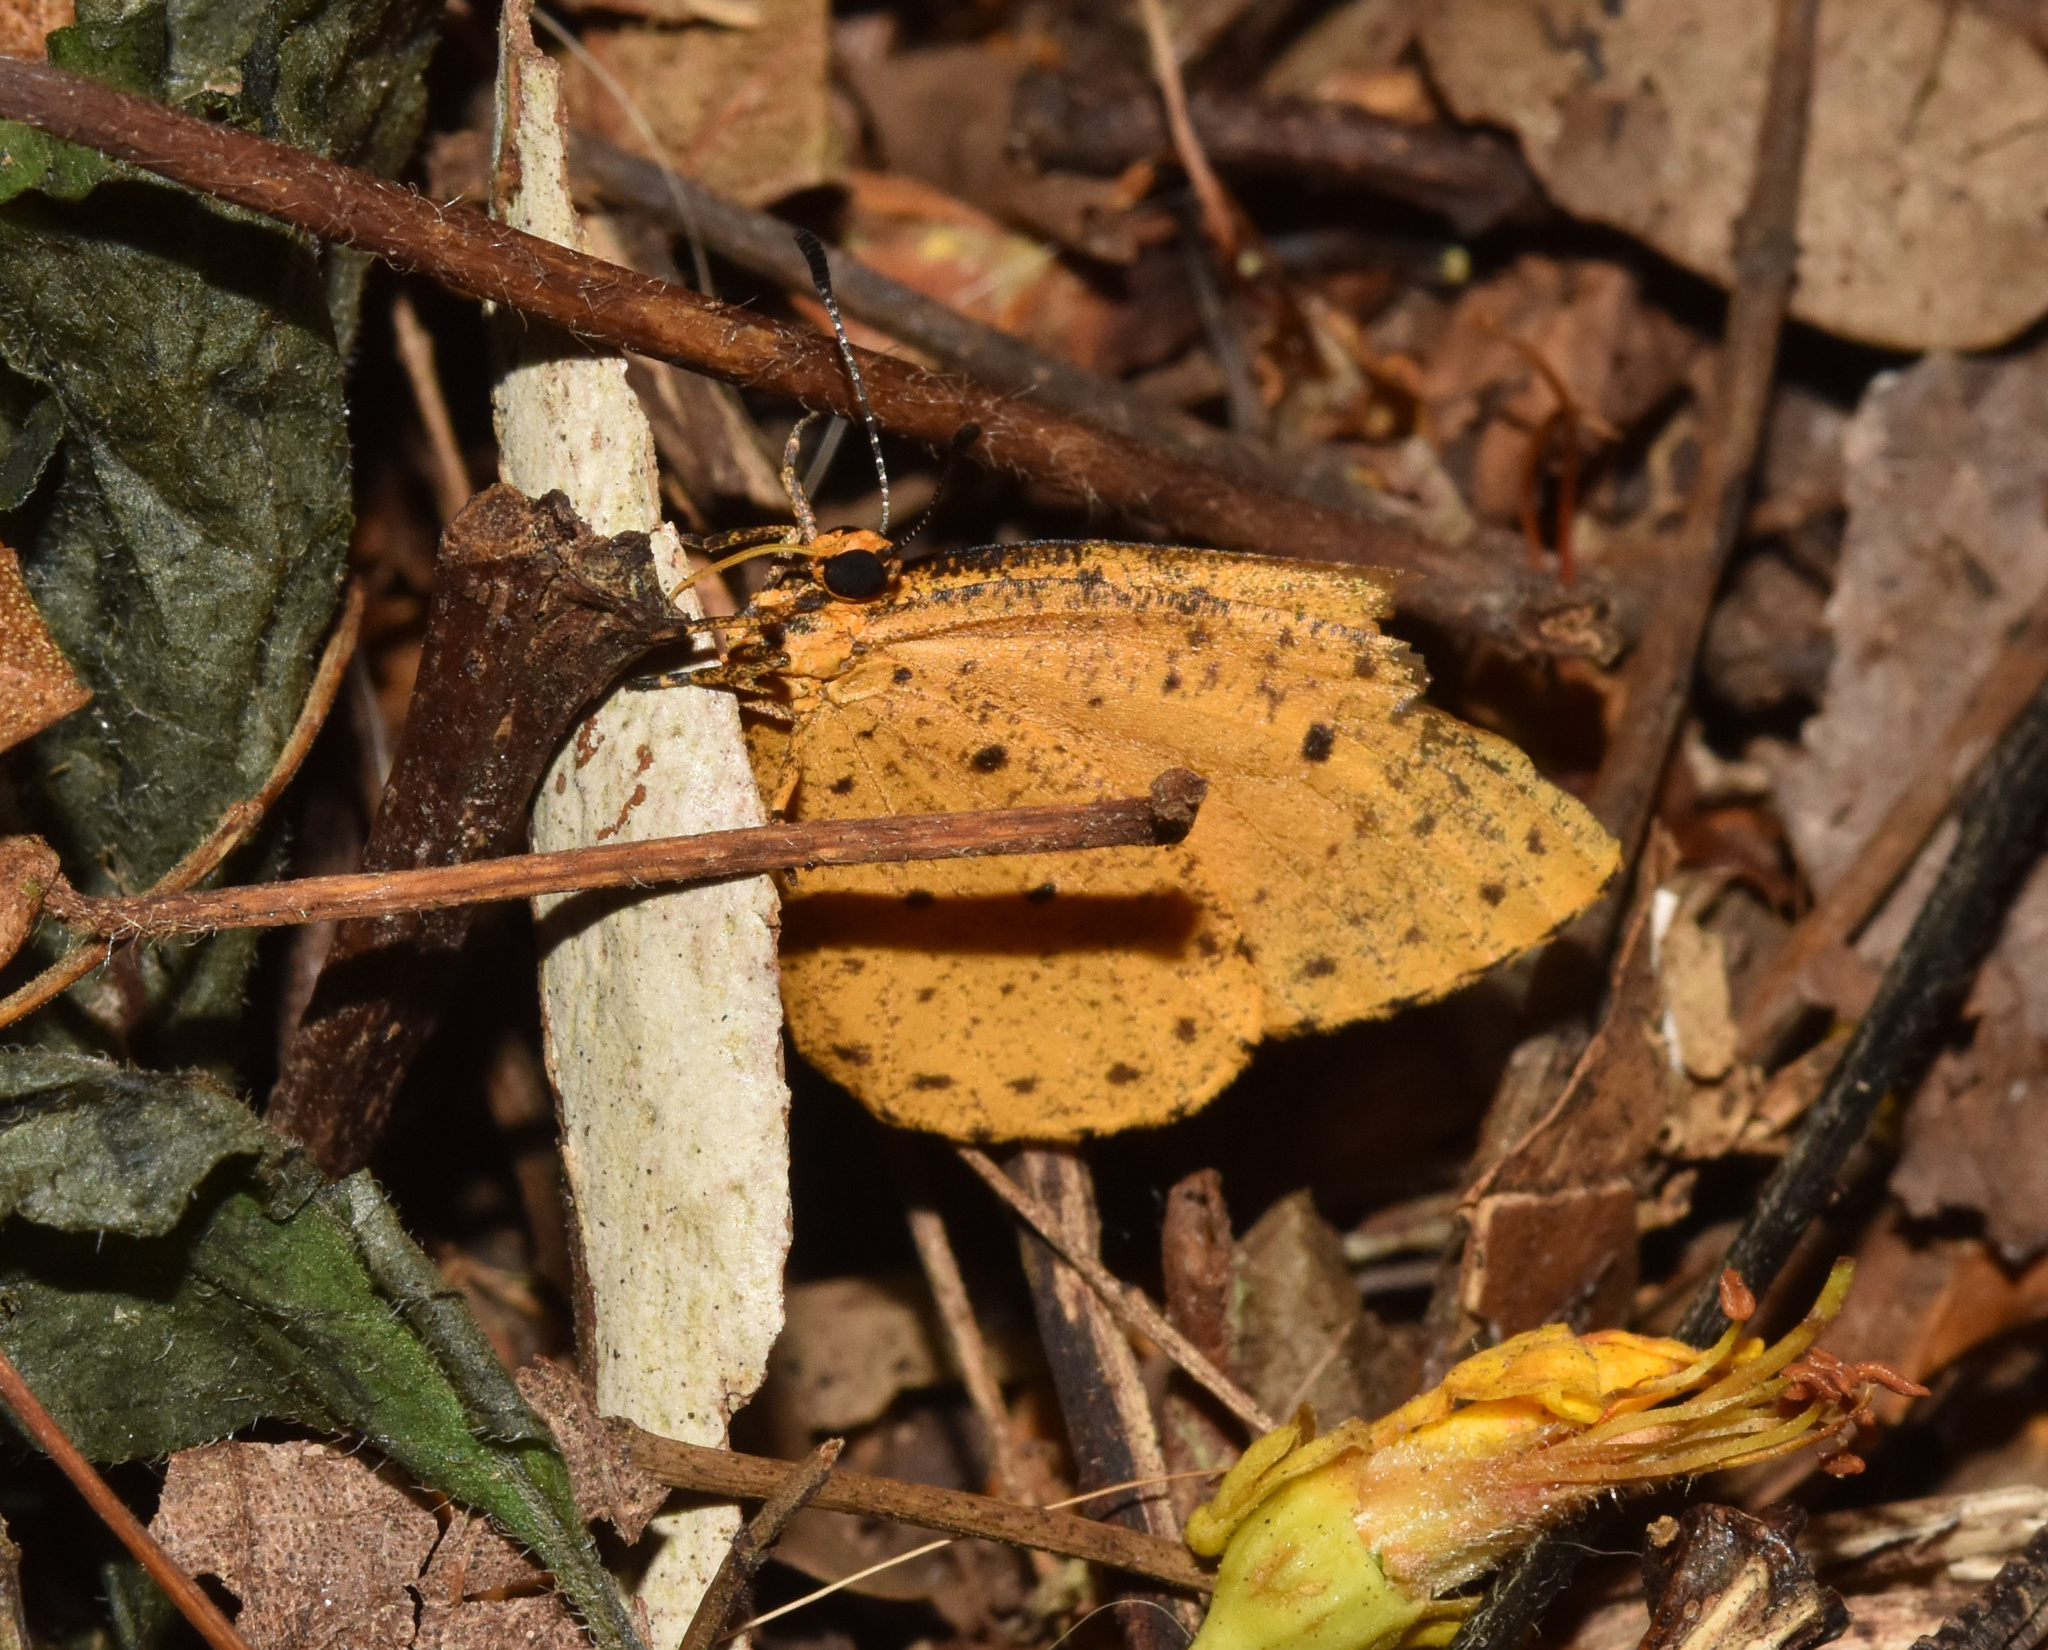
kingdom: Animalia
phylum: Arthropoda
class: Insecta
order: Lepidoptera
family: Lycaenidae
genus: Pentila
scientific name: Pentila tropicalis
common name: Spotted buff
